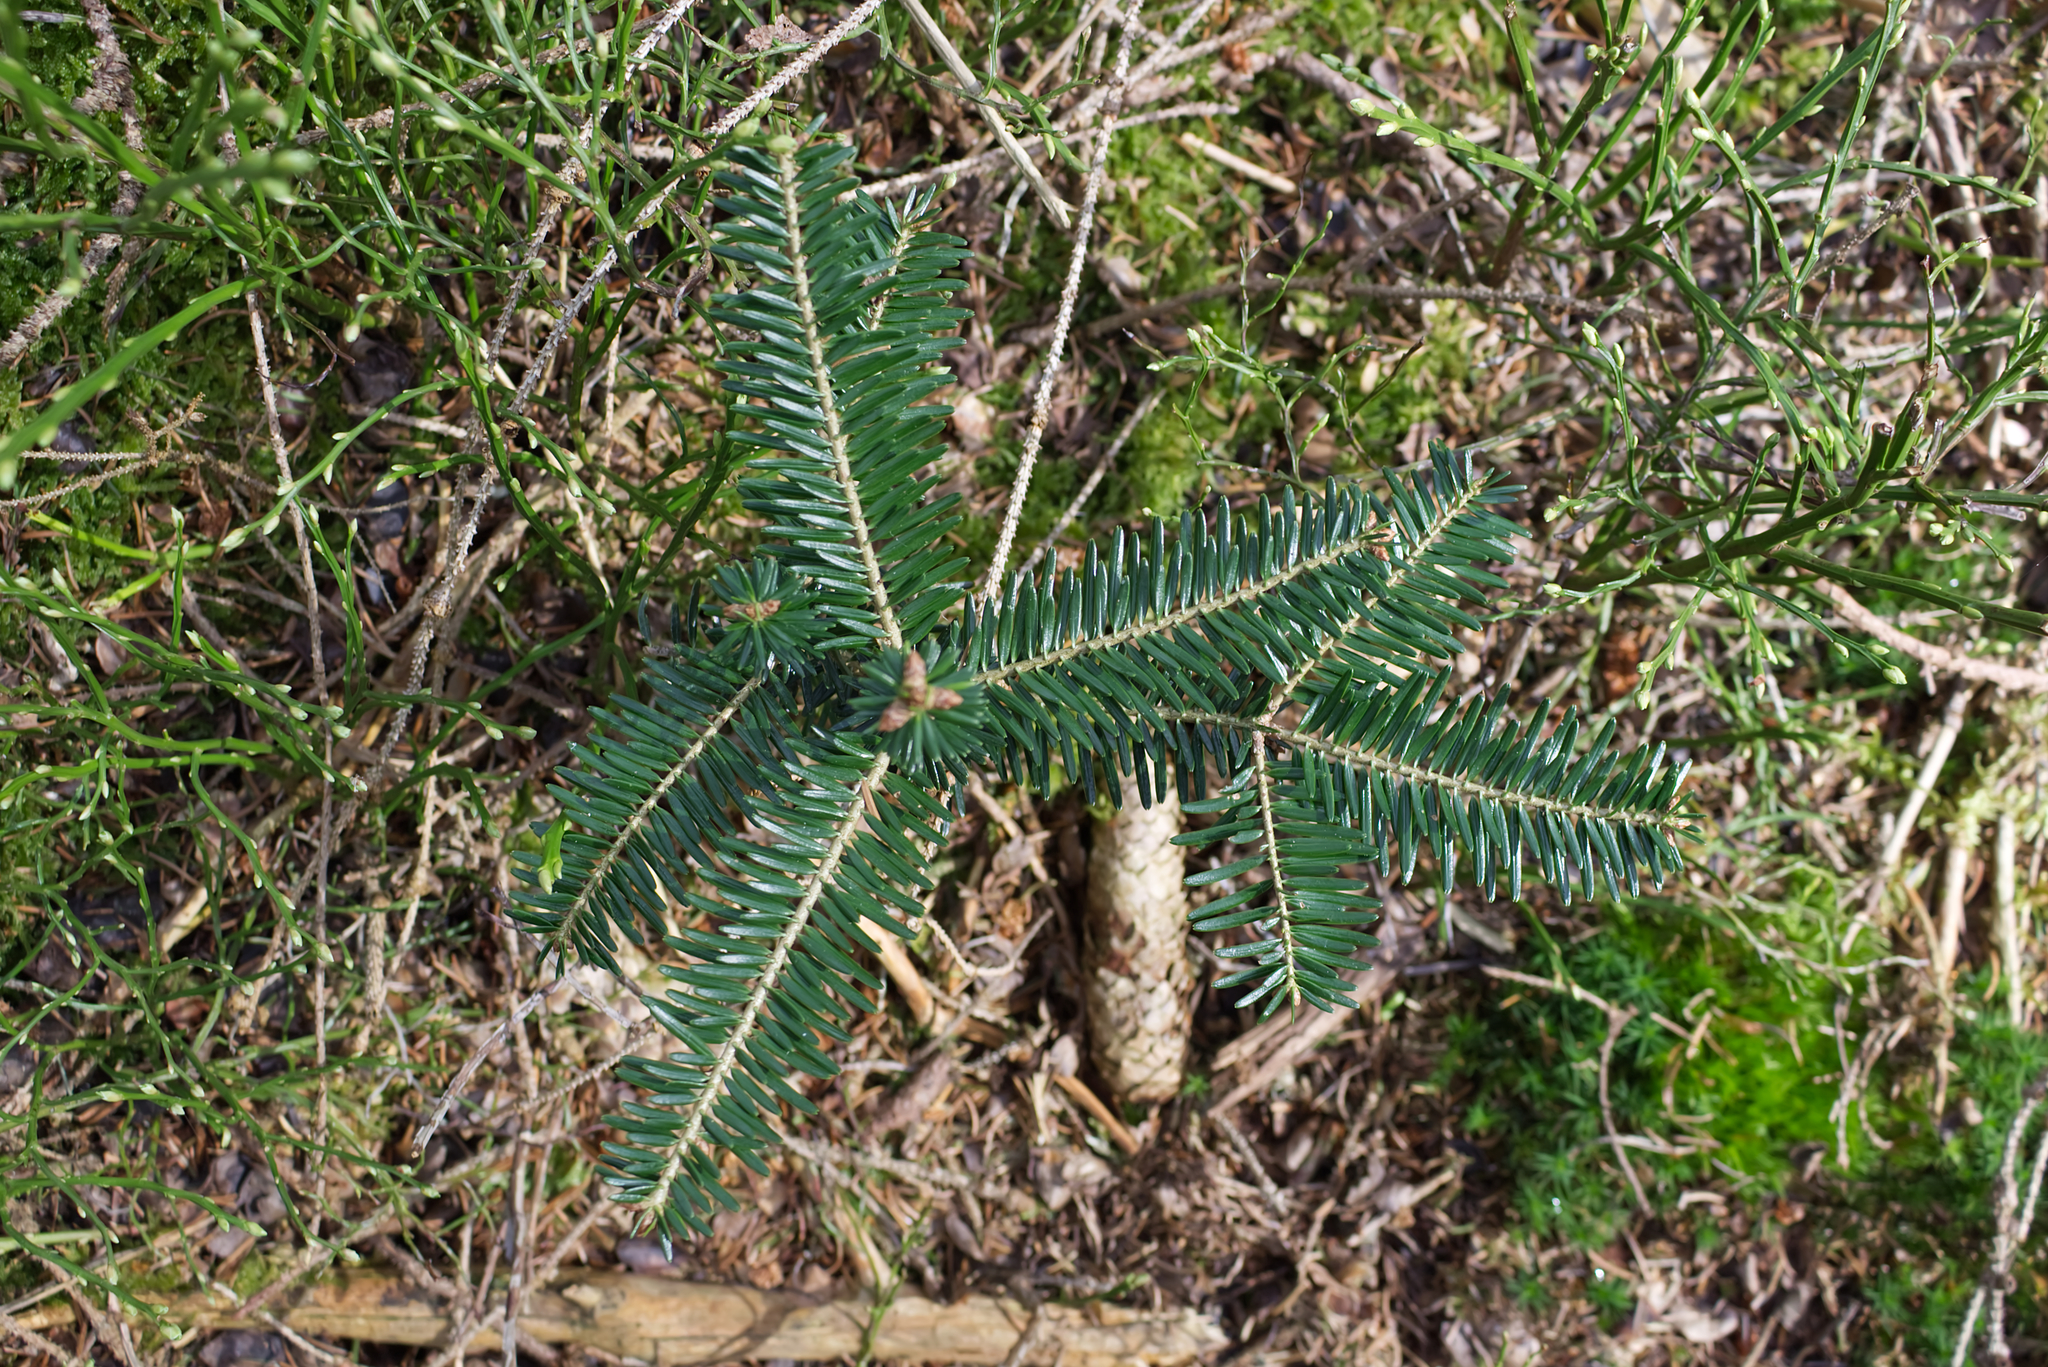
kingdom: Plantae
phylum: Tracheophyta
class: Pinopsida
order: Pinales
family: Pinaceae
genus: Abies
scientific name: Abies alba
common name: Silver fir
